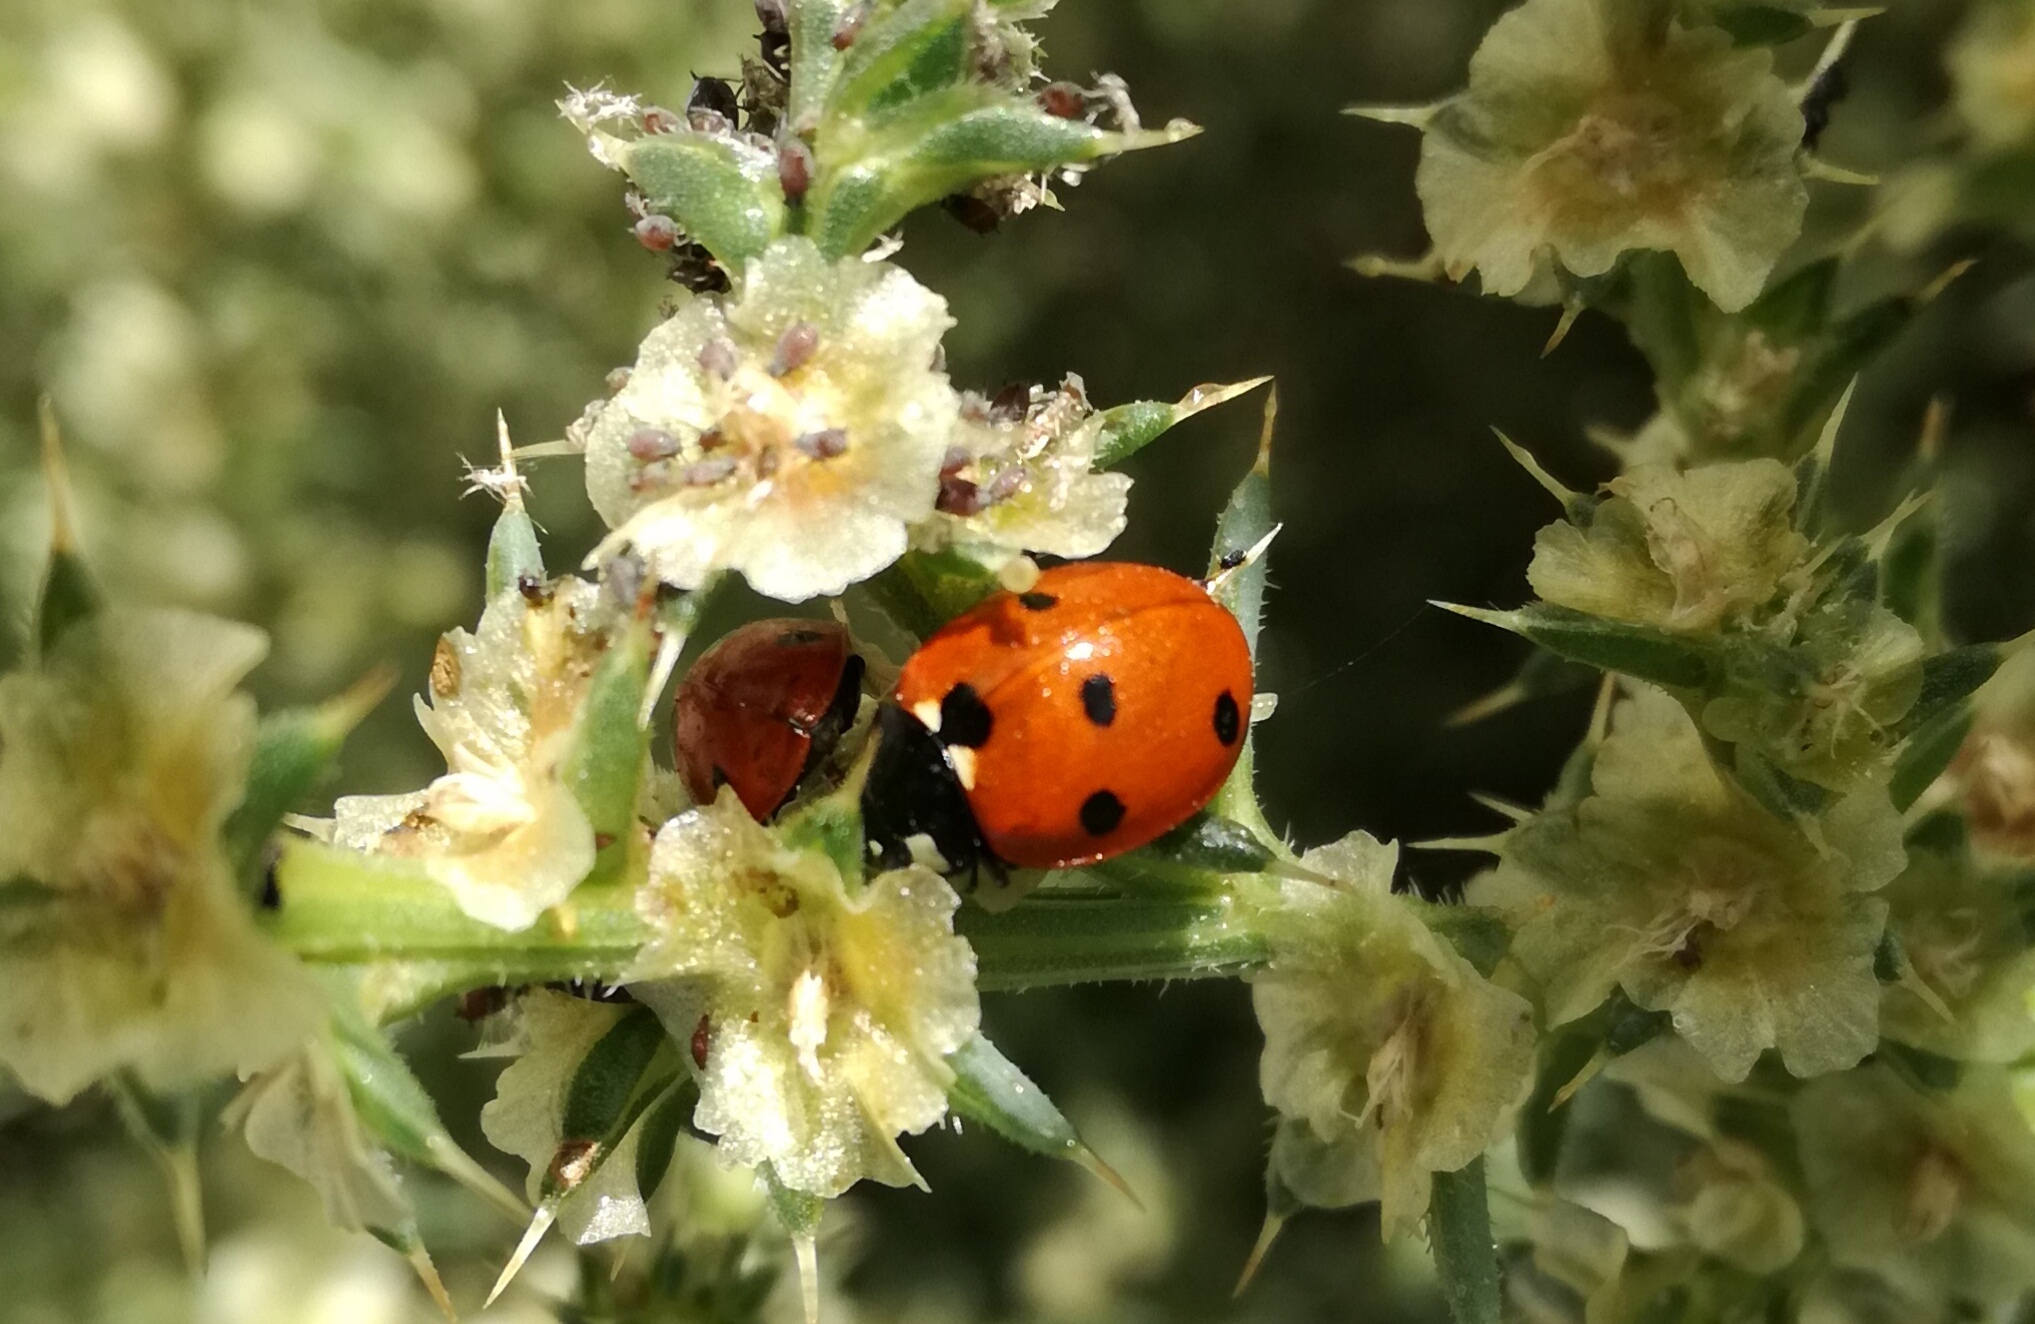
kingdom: Animalia
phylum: Arthropoda
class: Insecta
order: Coleoptera
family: Coccinellidae
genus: Coccinella
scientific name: Coccinella septempunctata
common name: Sevenspotted lady beetle
